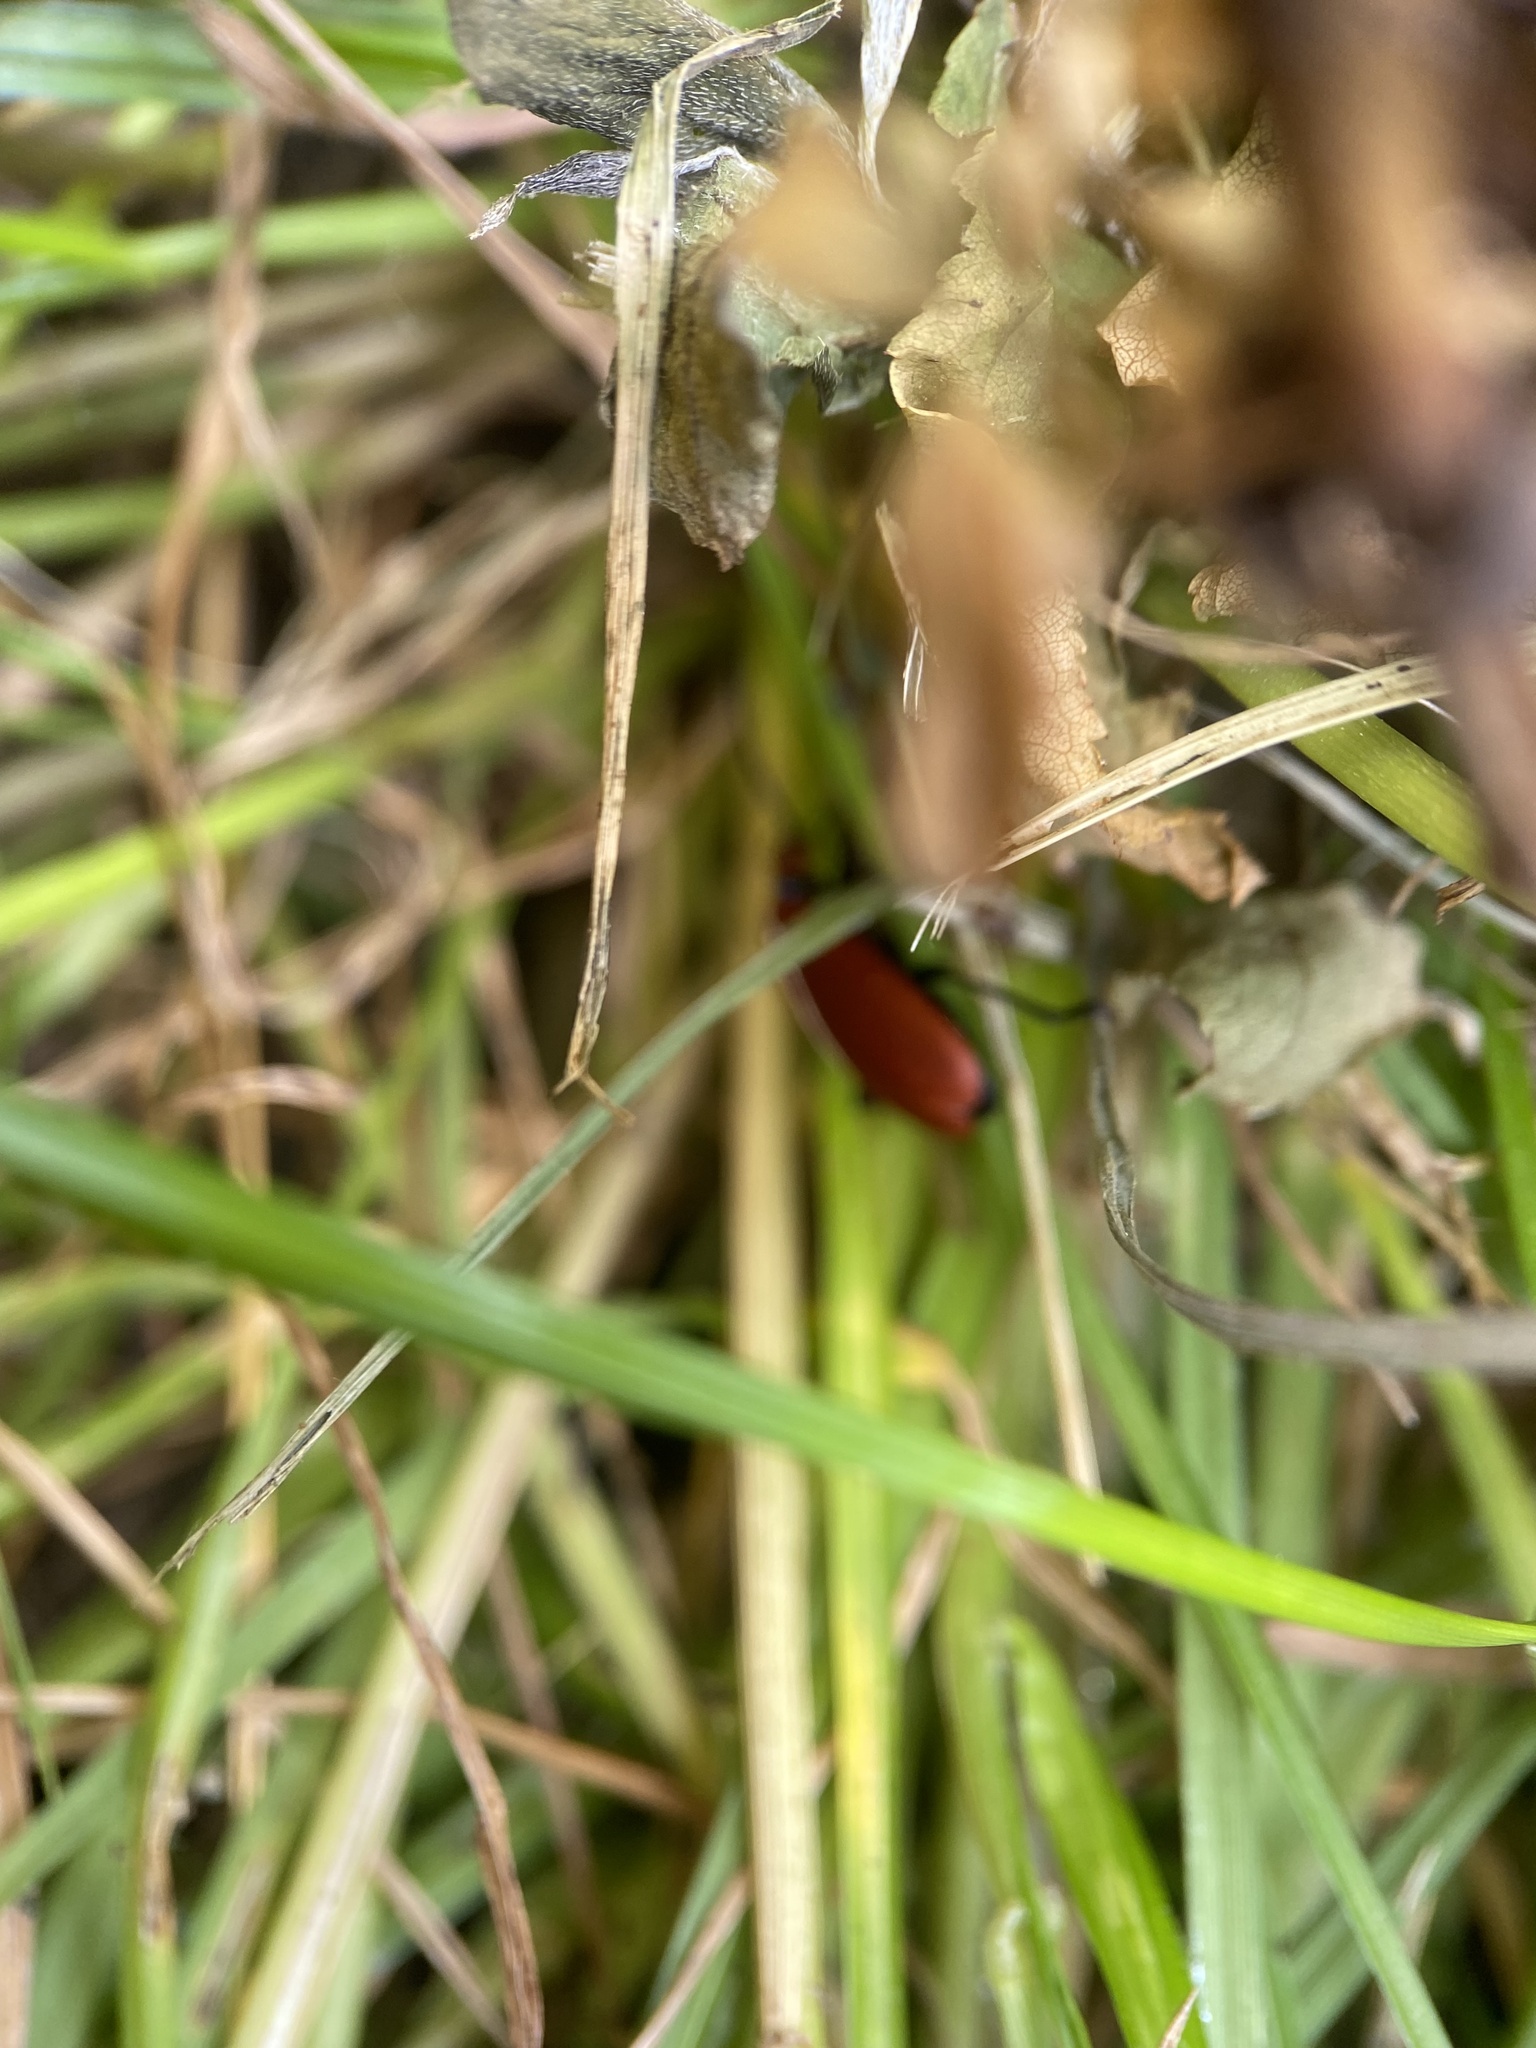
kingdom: Animalia
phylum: Arthropoda
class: Insecta
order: Coleoptera
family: Pyrochroidae
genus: Pyrochroa
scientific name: Pyrochroa serraticornis
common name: Red-headed cardinal beetle
